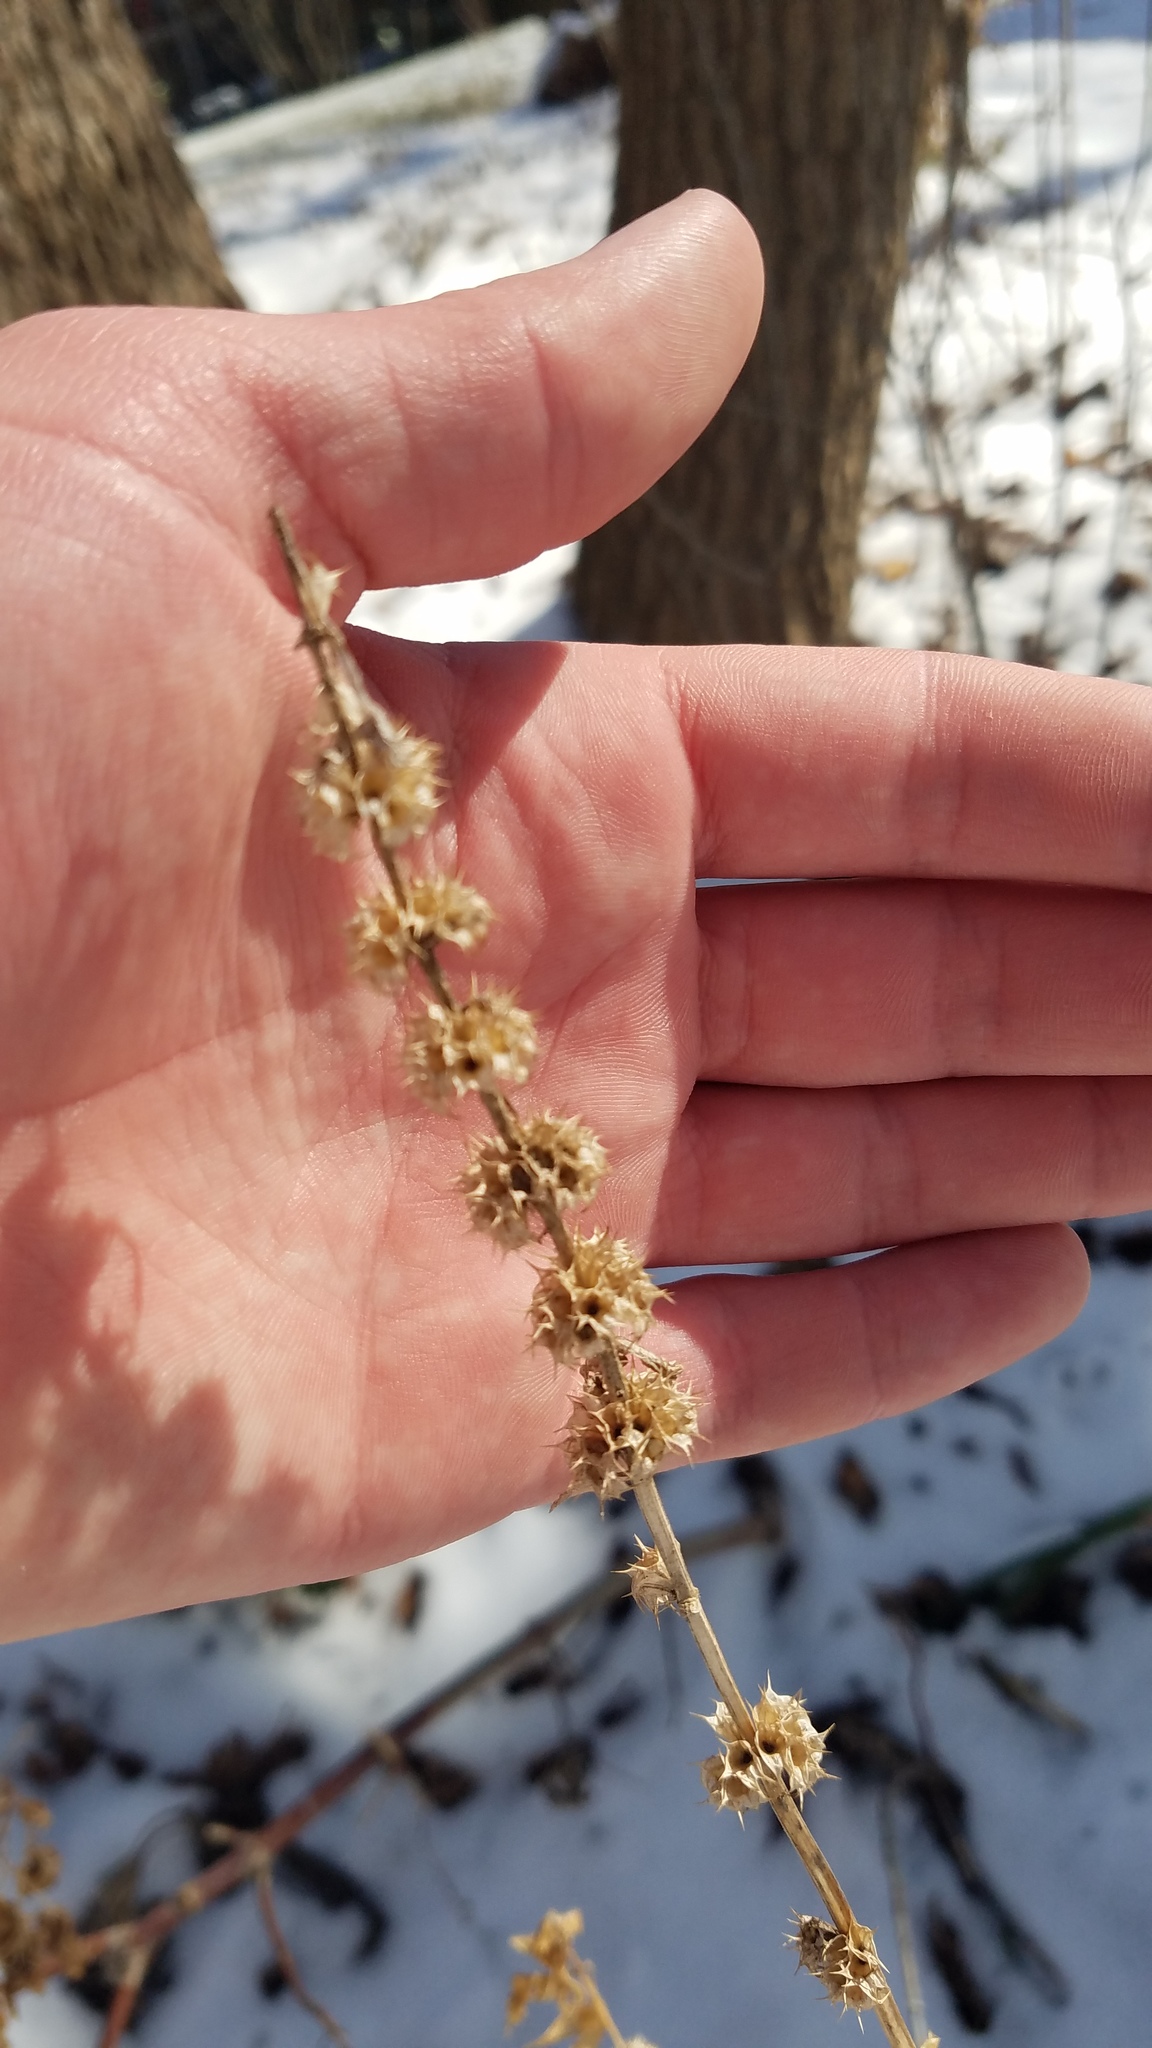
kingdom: Plantae
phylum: Tracheophyta
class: Magnoliopsida
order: Lamiales
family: Lamiaceae
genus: Leonurus
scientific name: Leonurus cardiaca
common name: Motherwort
